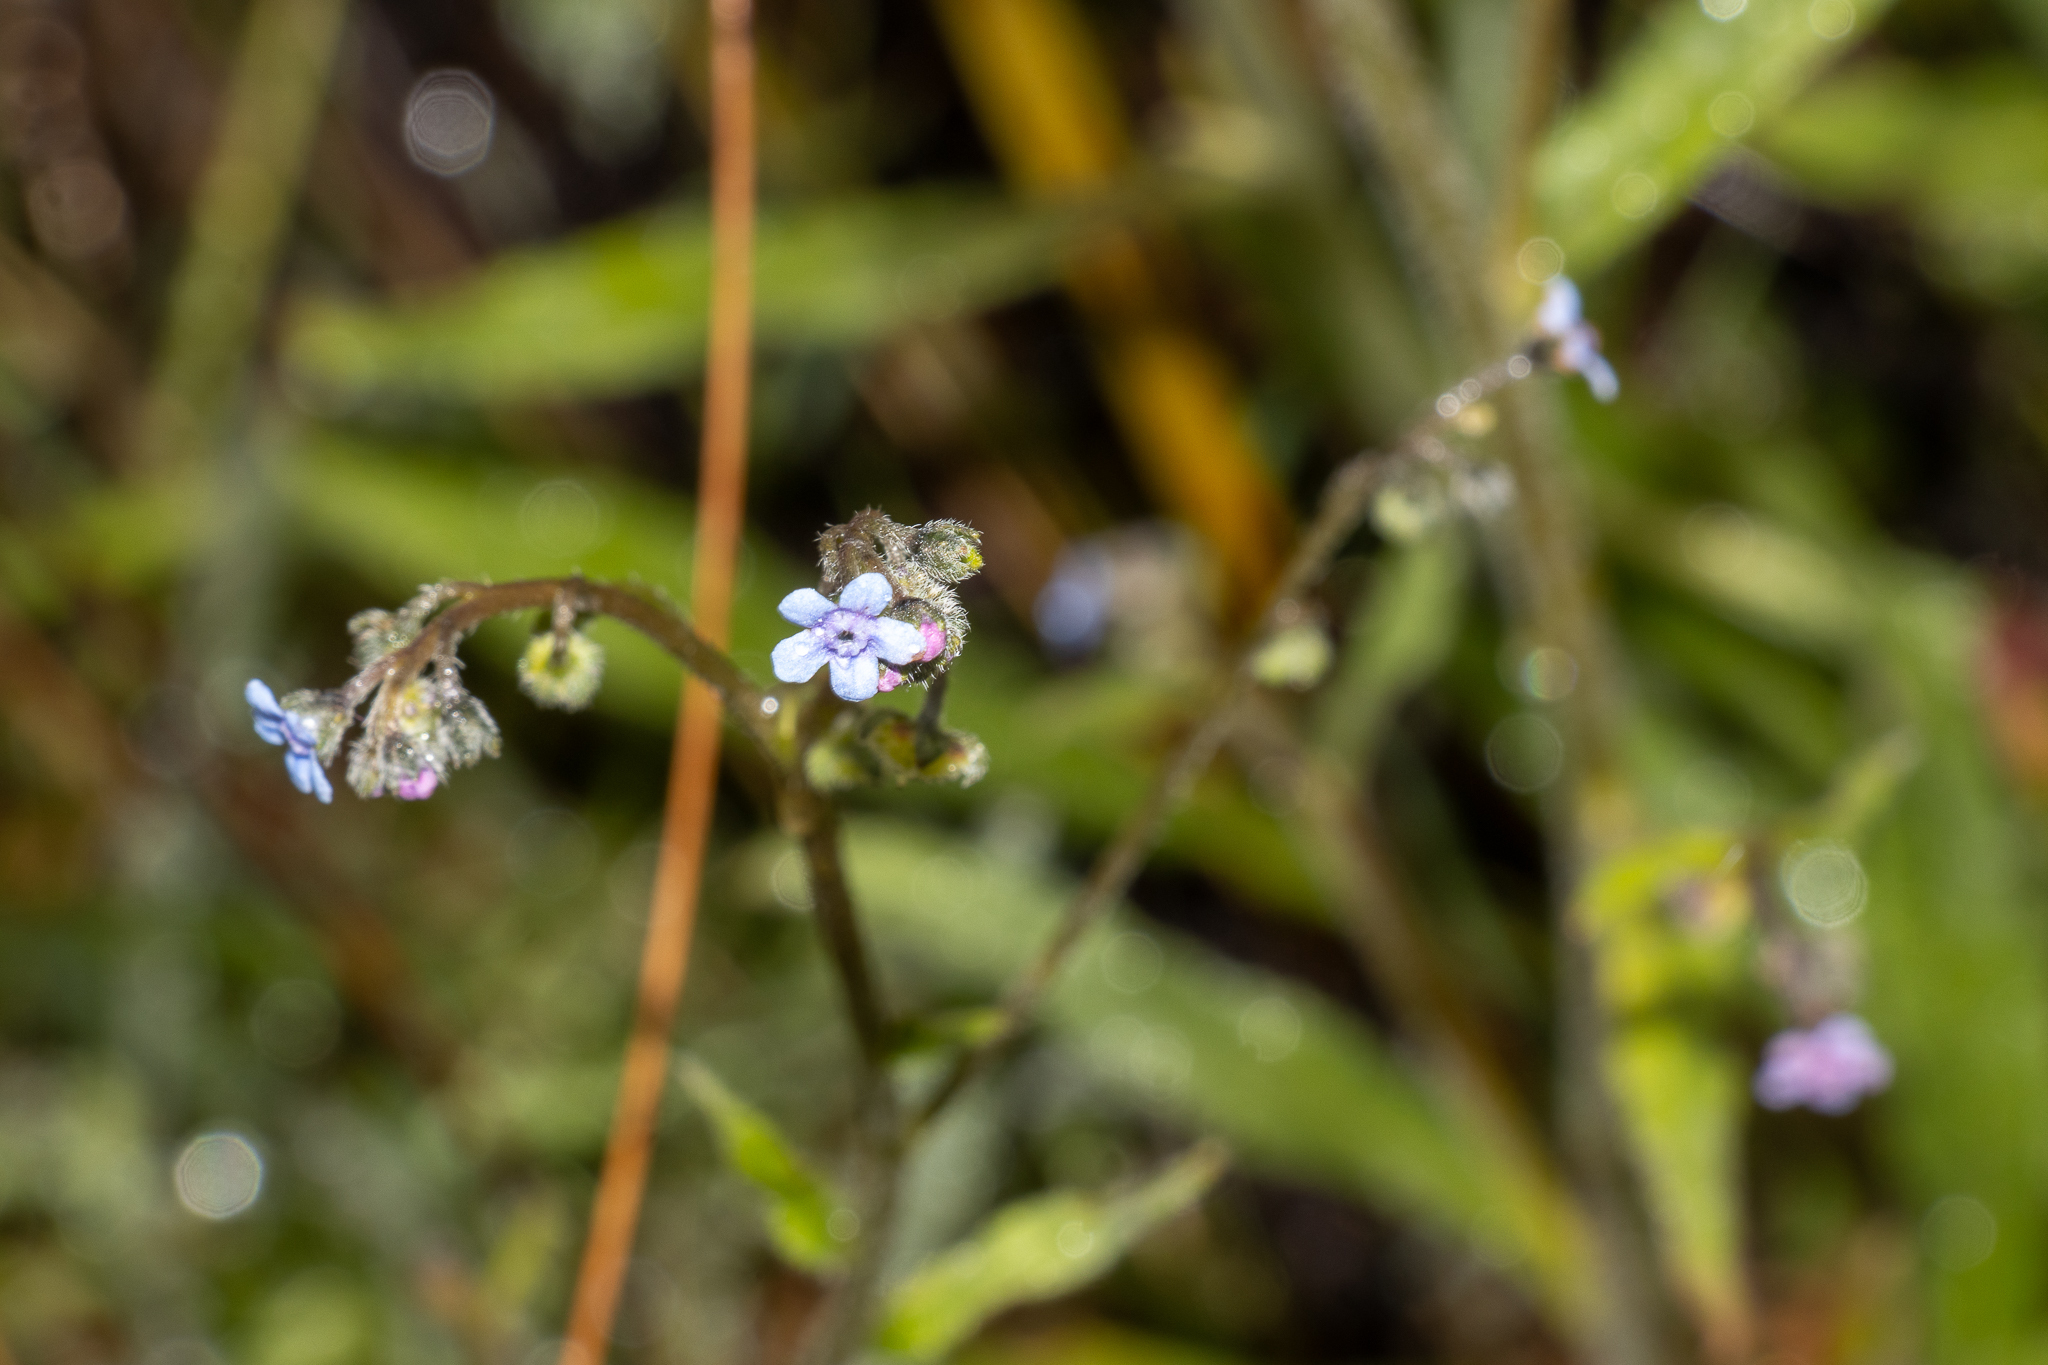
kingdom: Plantae
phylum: Tracheophyta
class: Magnoliopsida
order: Boraginales
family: Boraginaceae
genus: Cynoglossum
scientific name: Cynoglossum australe
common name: Australian hound's-tongue
